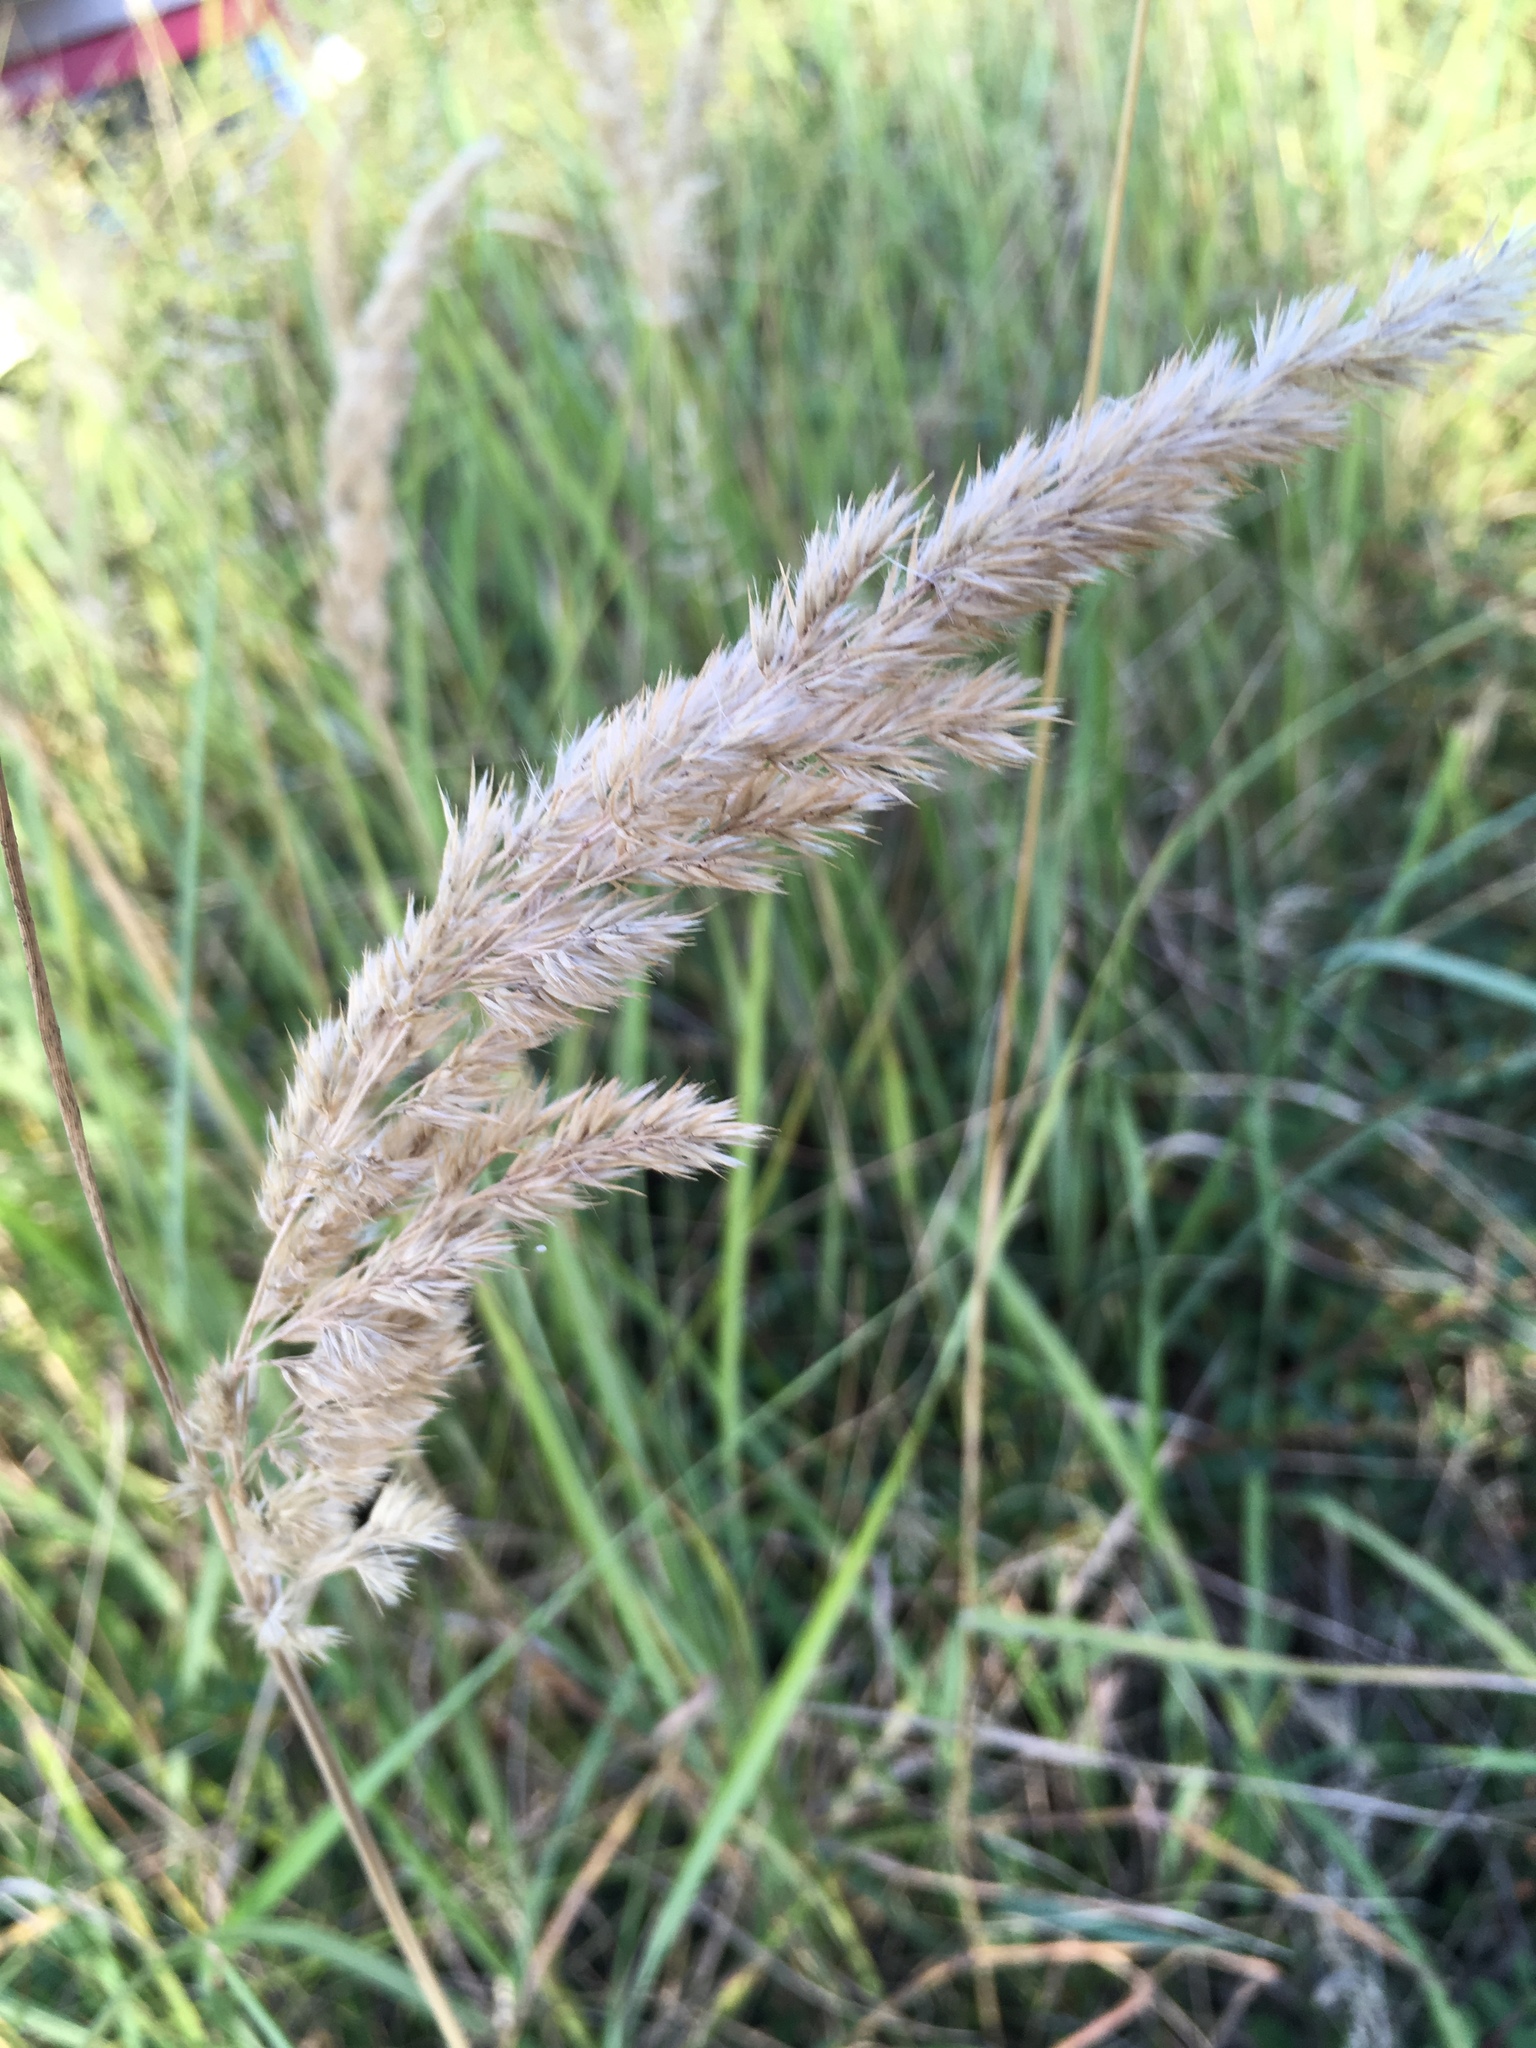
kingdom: Plantae
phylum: Tracheophyta
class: Liliopsida
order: Poales
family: Poaceae
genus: Calamagrostis
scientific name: Calamagrostis epigejos
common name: Wood small-reed
